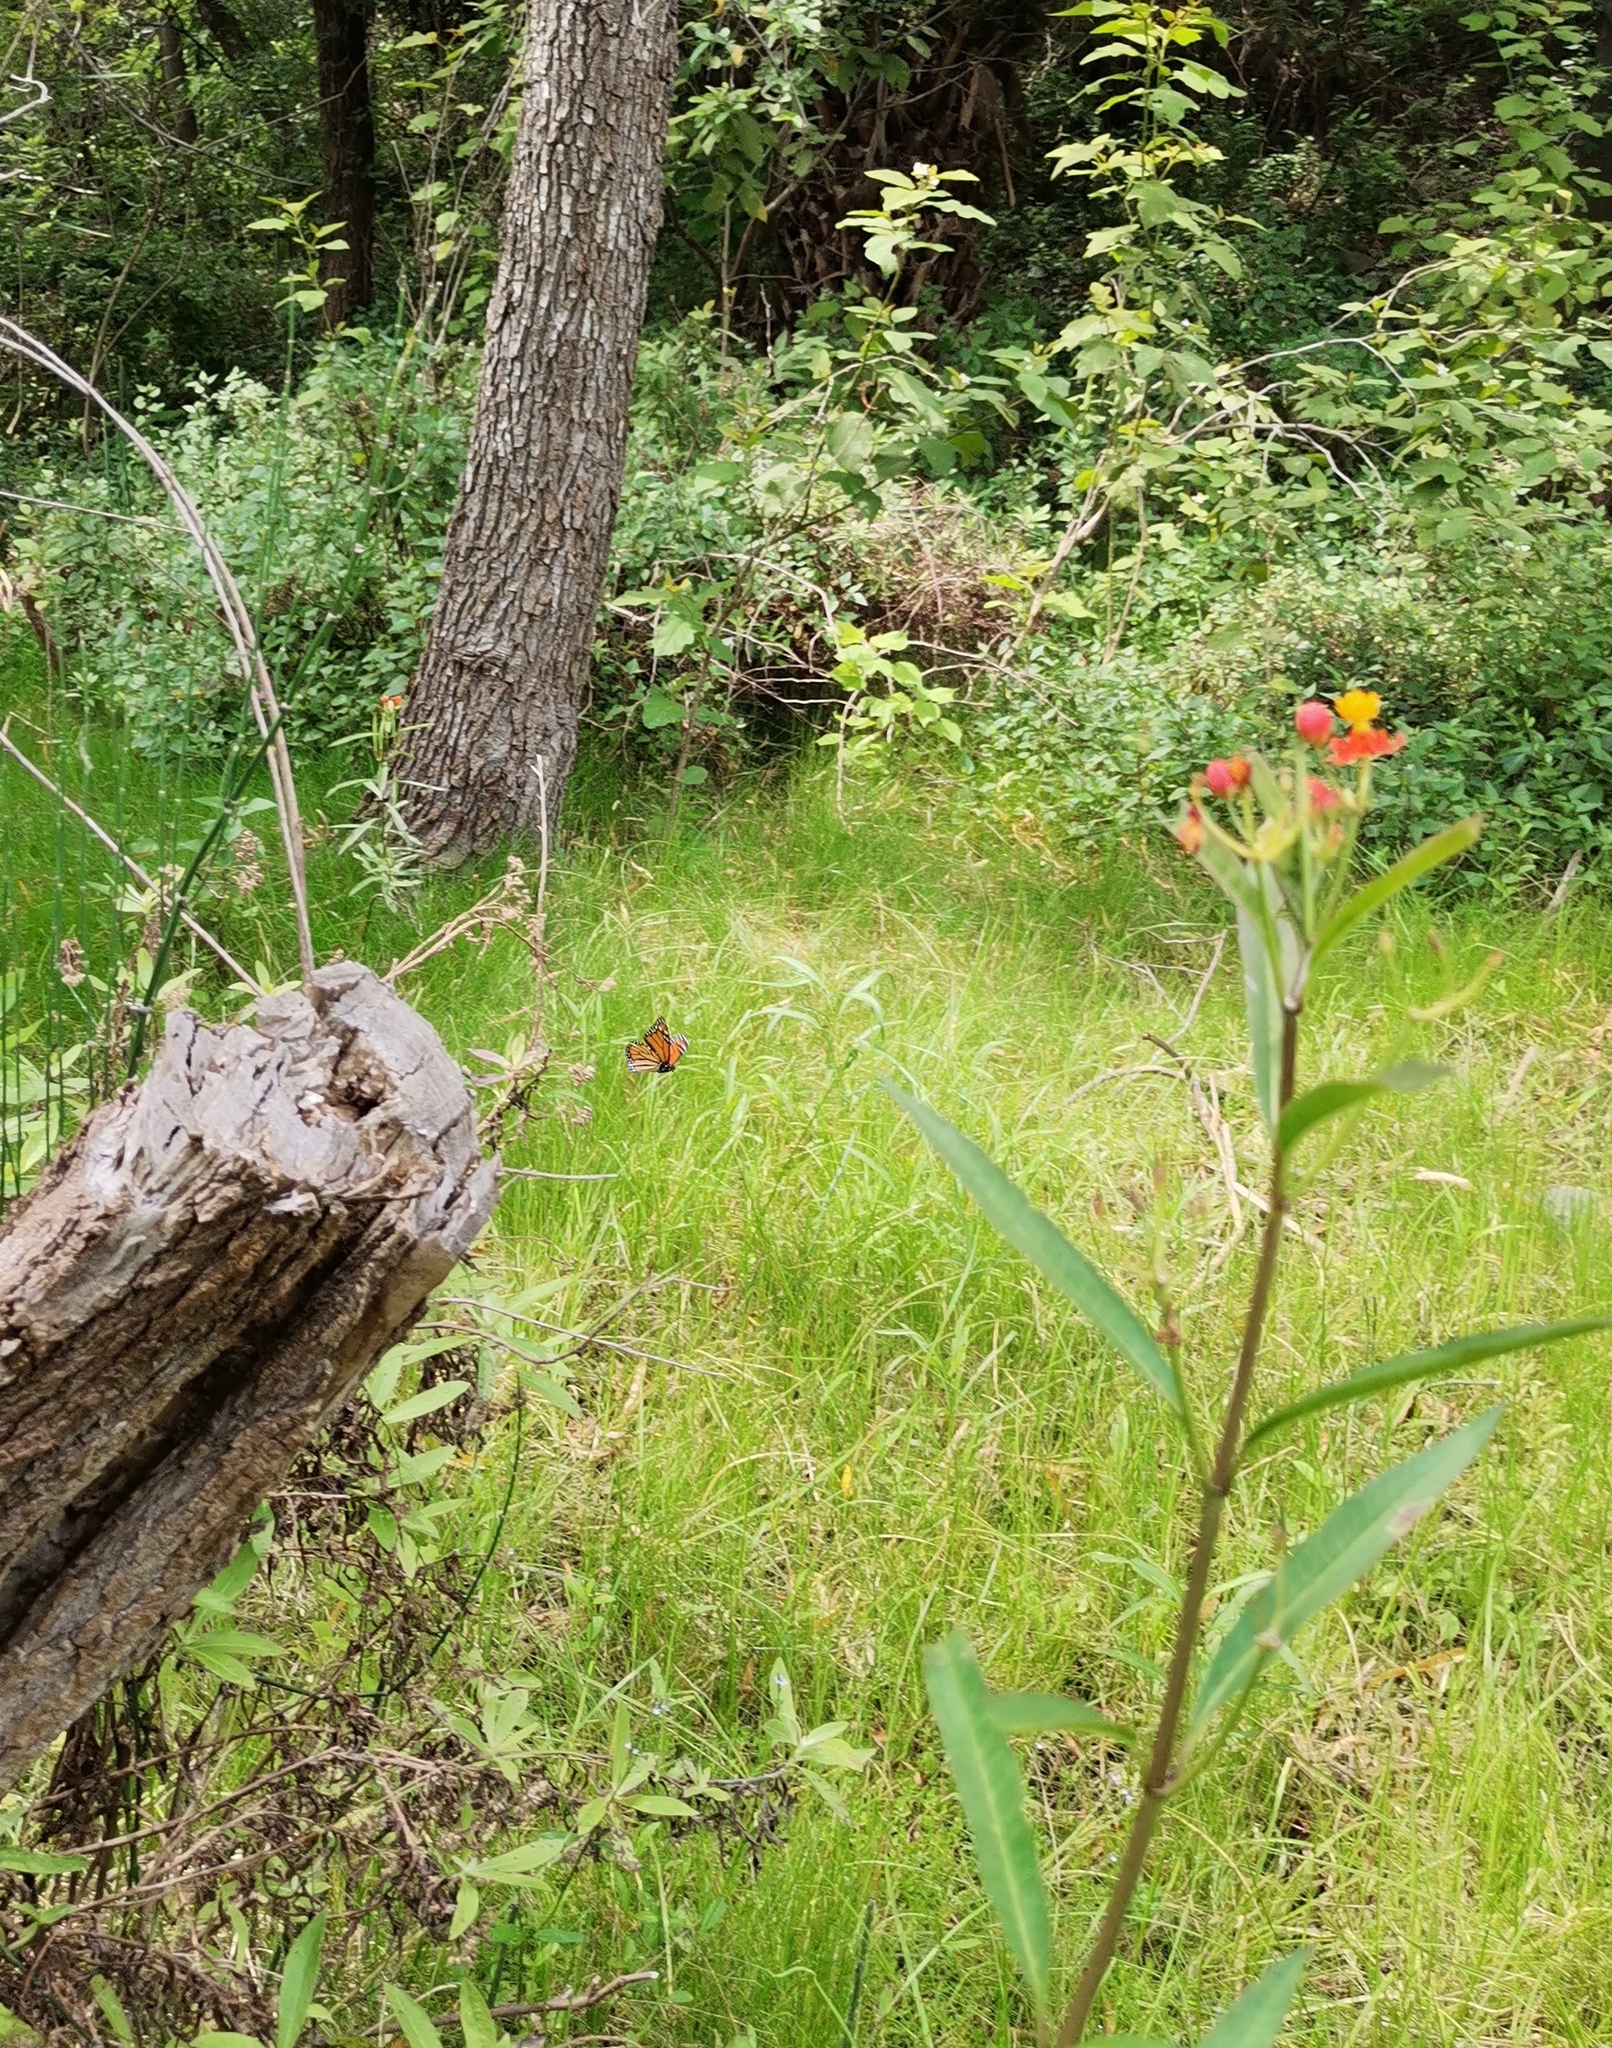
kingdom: Plantae
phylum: Tracheophyta
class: Magnoliopsida
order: Gentianales
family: Apocynaceae
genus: Asclepias
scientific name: Asclepias curassavica
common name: Bloodflower
